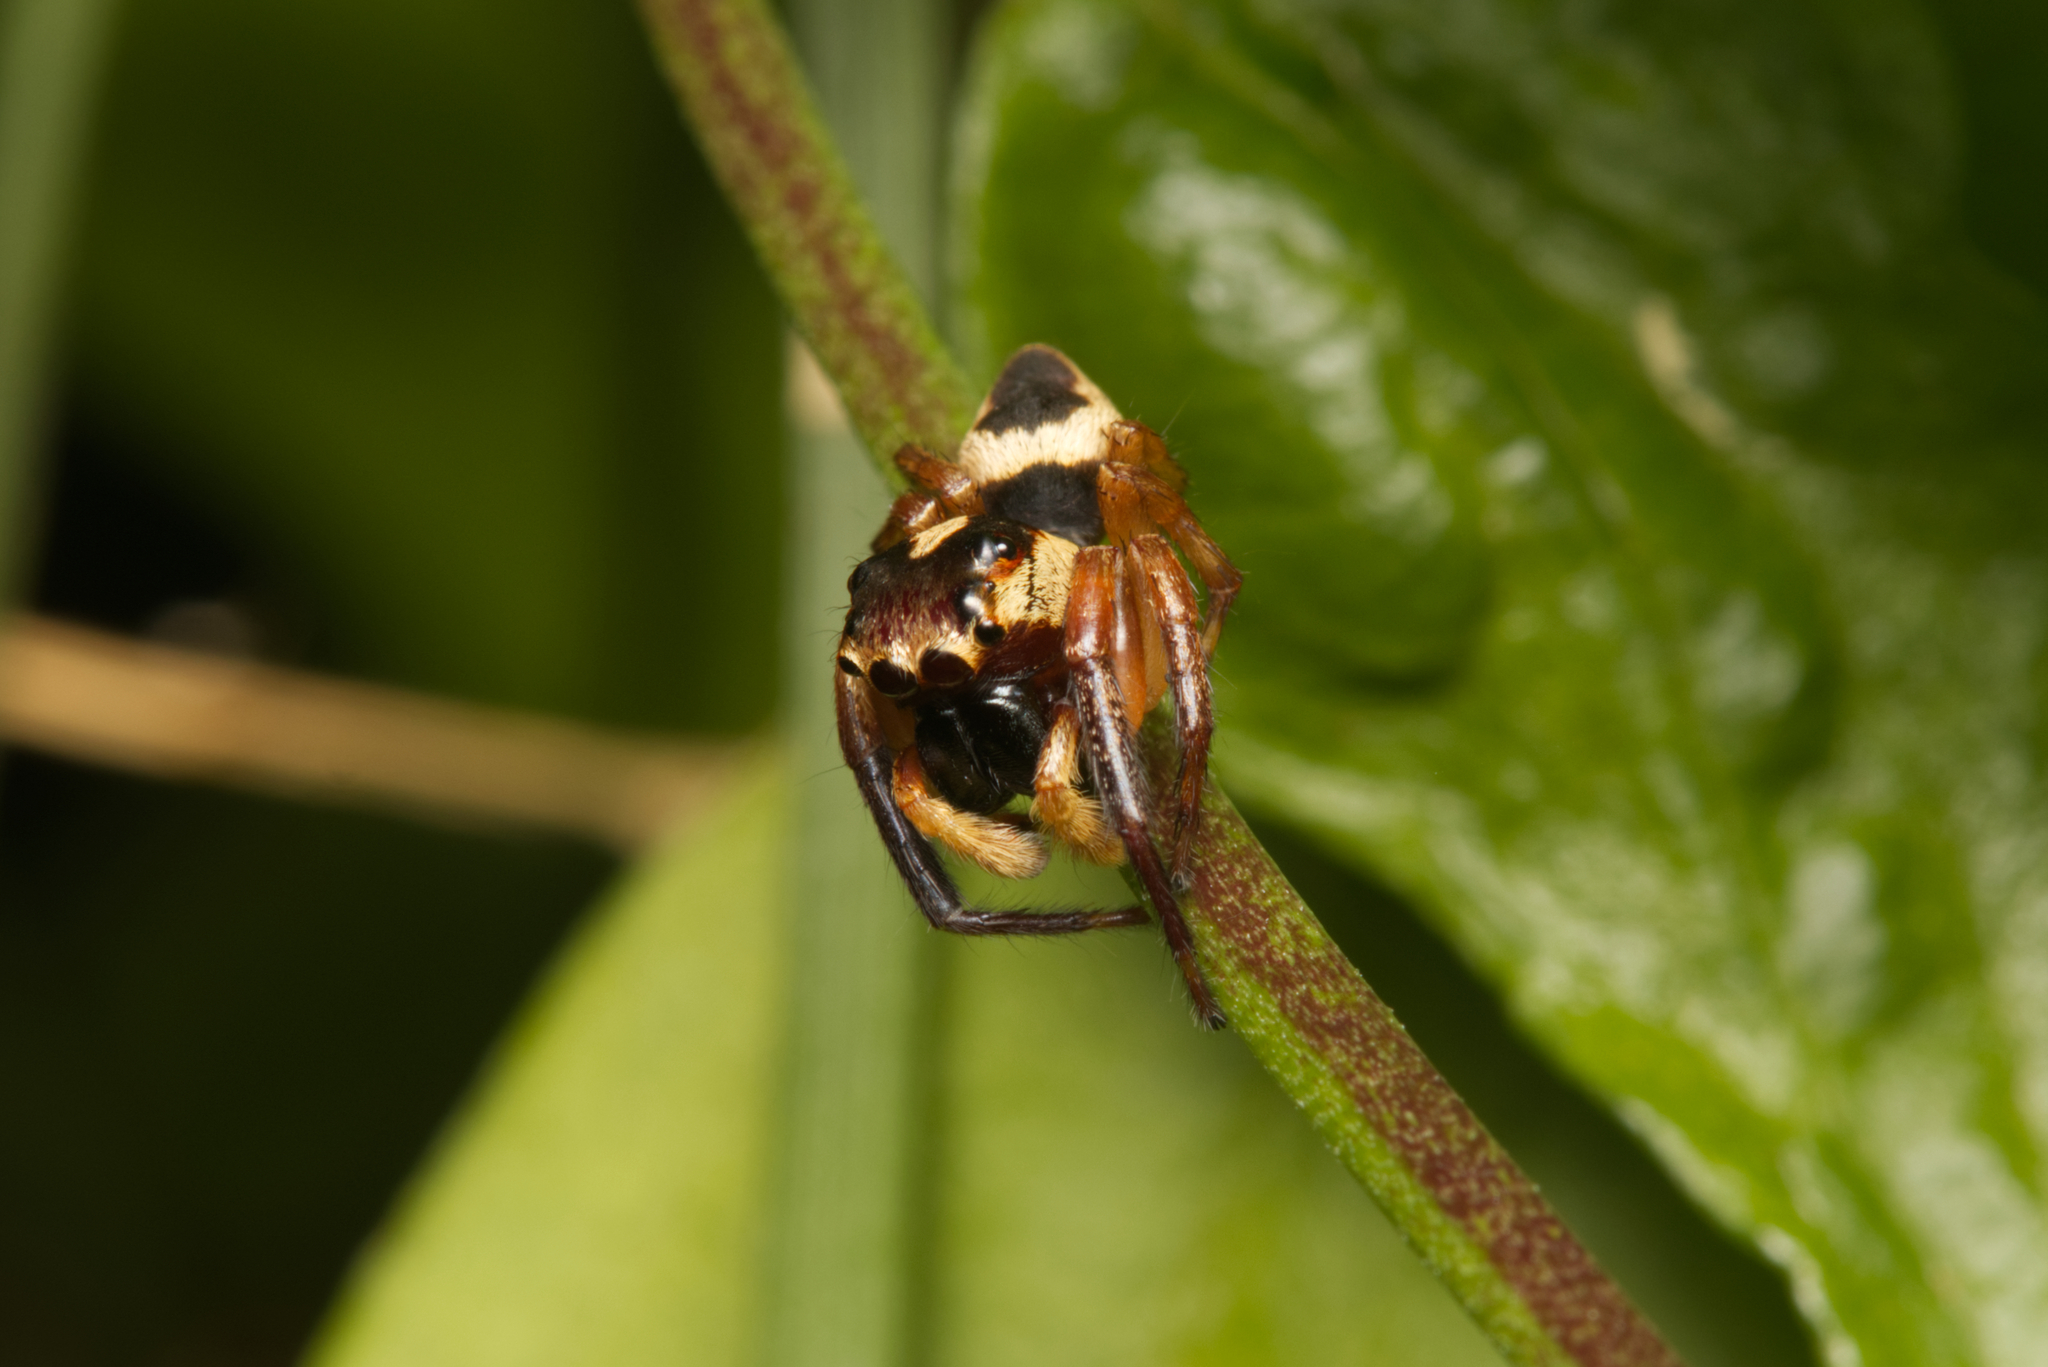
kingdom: Animalia
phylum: Arthropoda
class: Arachnida
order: Araneae
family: Salticidae
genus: Euryattus
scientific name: Euryattus wallacei
